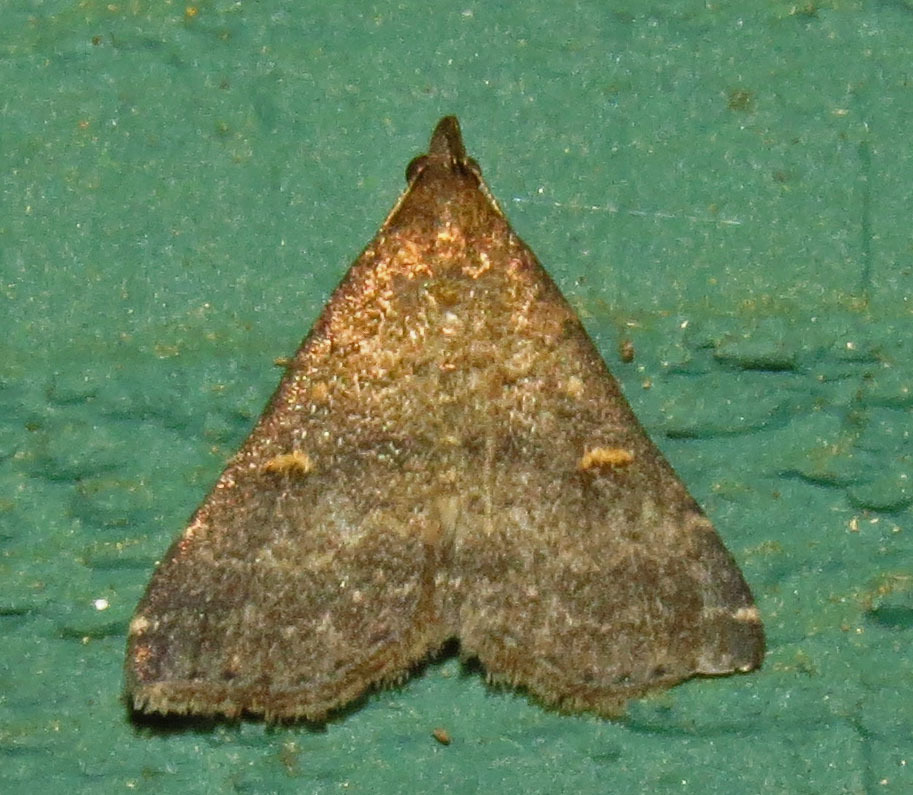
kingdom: Animalia
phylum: Arthropoda
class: Insecta
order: Lepidoptera
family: Erebidae
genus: Tetanolita
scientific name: Tetanolita mynesalis
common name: Smoky tetanolita moth
